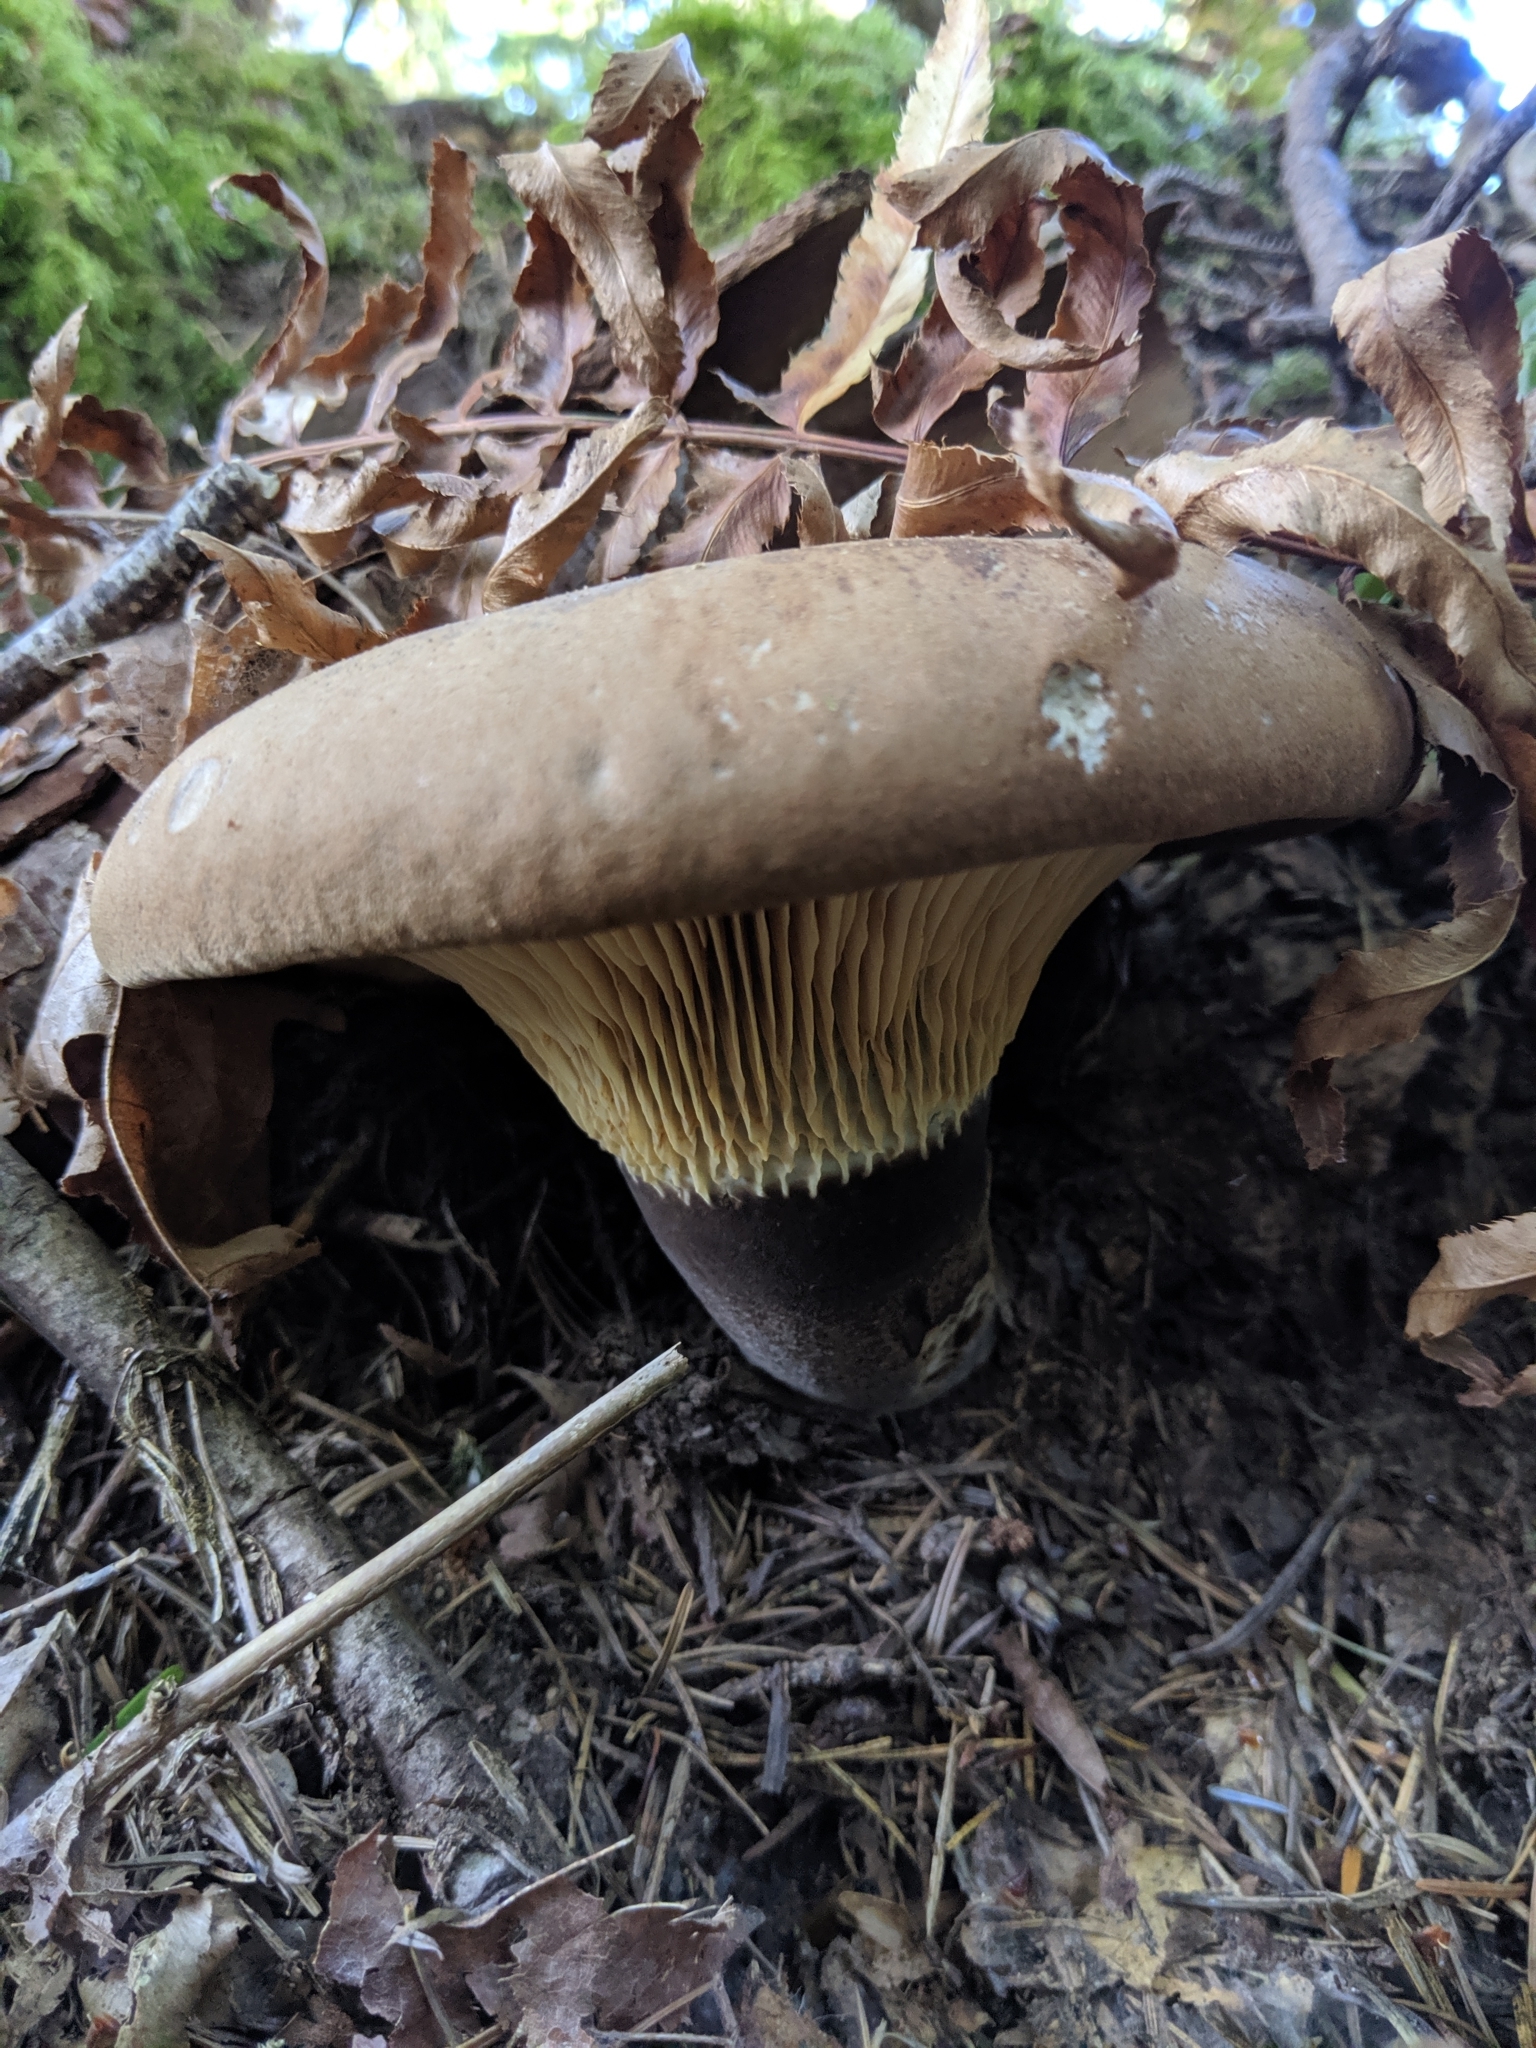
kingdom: Fungi
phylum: Basidiomycota
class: Agaricomycetes
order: Boletales
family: Tapinellaceae
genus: Tapinella
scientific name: Tapinella atrotomentosa
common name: Velvet rollrim
